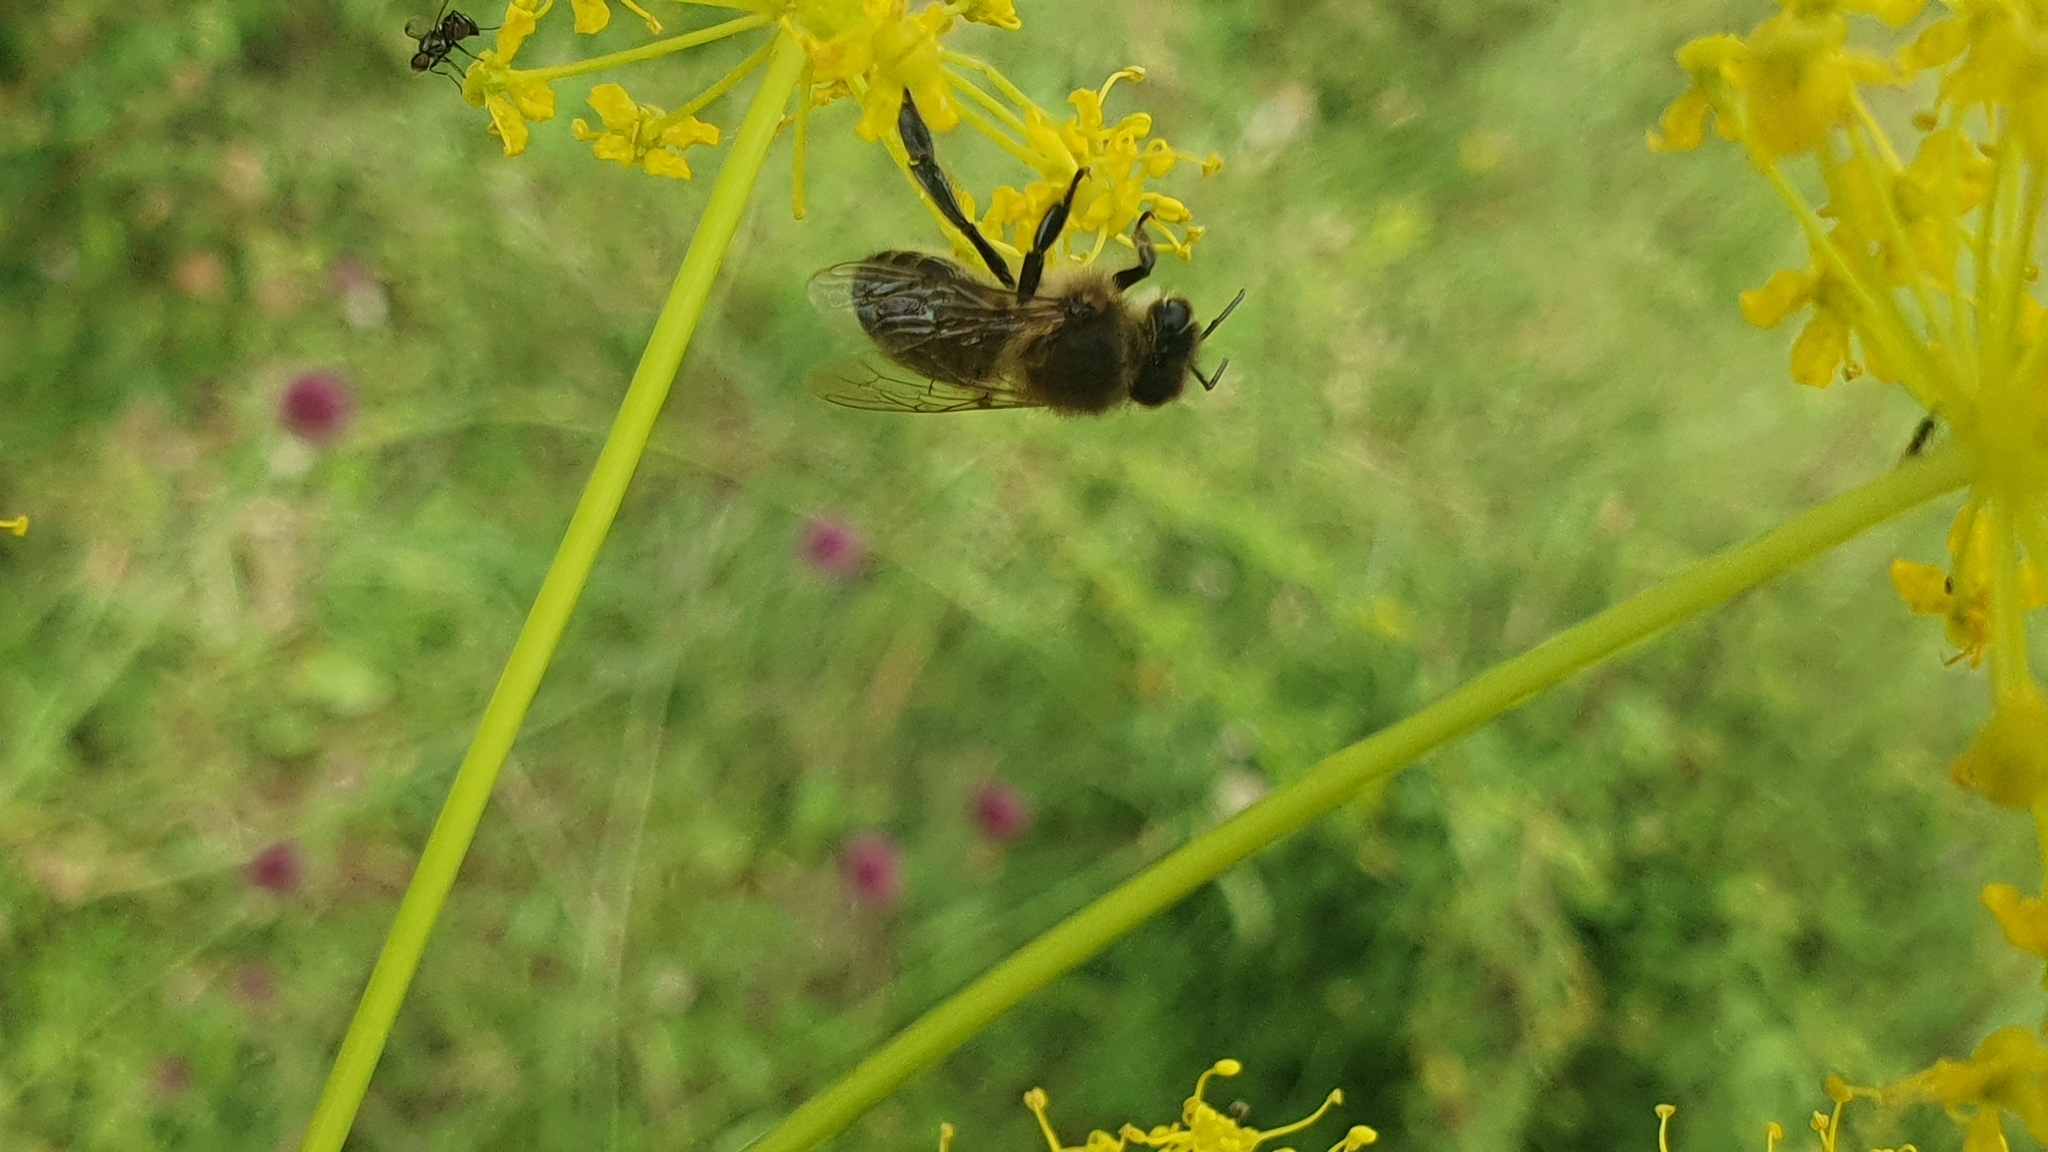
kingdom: Animalia
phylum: Arthropoda
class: Insecta
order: Hymenoptera
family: Apidae
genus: Apis
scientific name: Apis mellifera
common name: Honey bee
